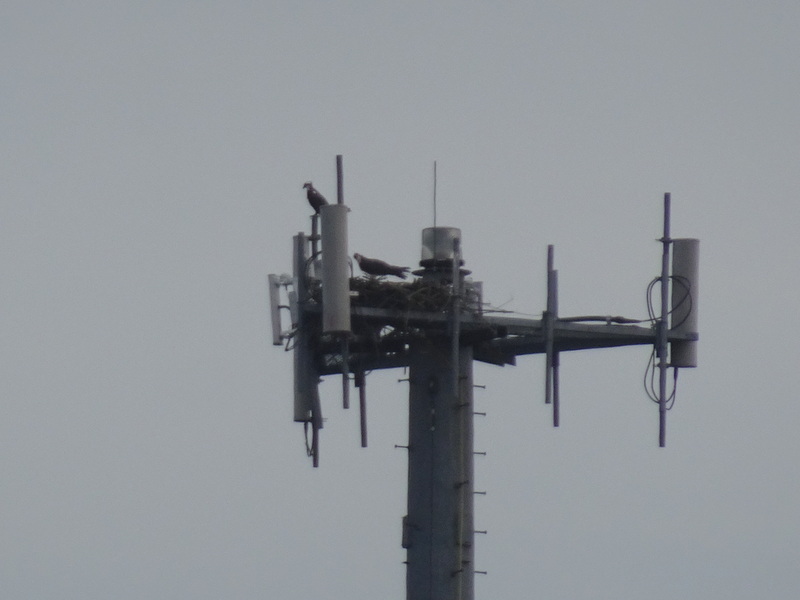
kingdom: Animalia
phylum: Chordata
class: Aves
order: Accipitriformes
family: Pandionidae
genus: Pandion
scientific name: Pandion haliaetus
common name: Osprey
